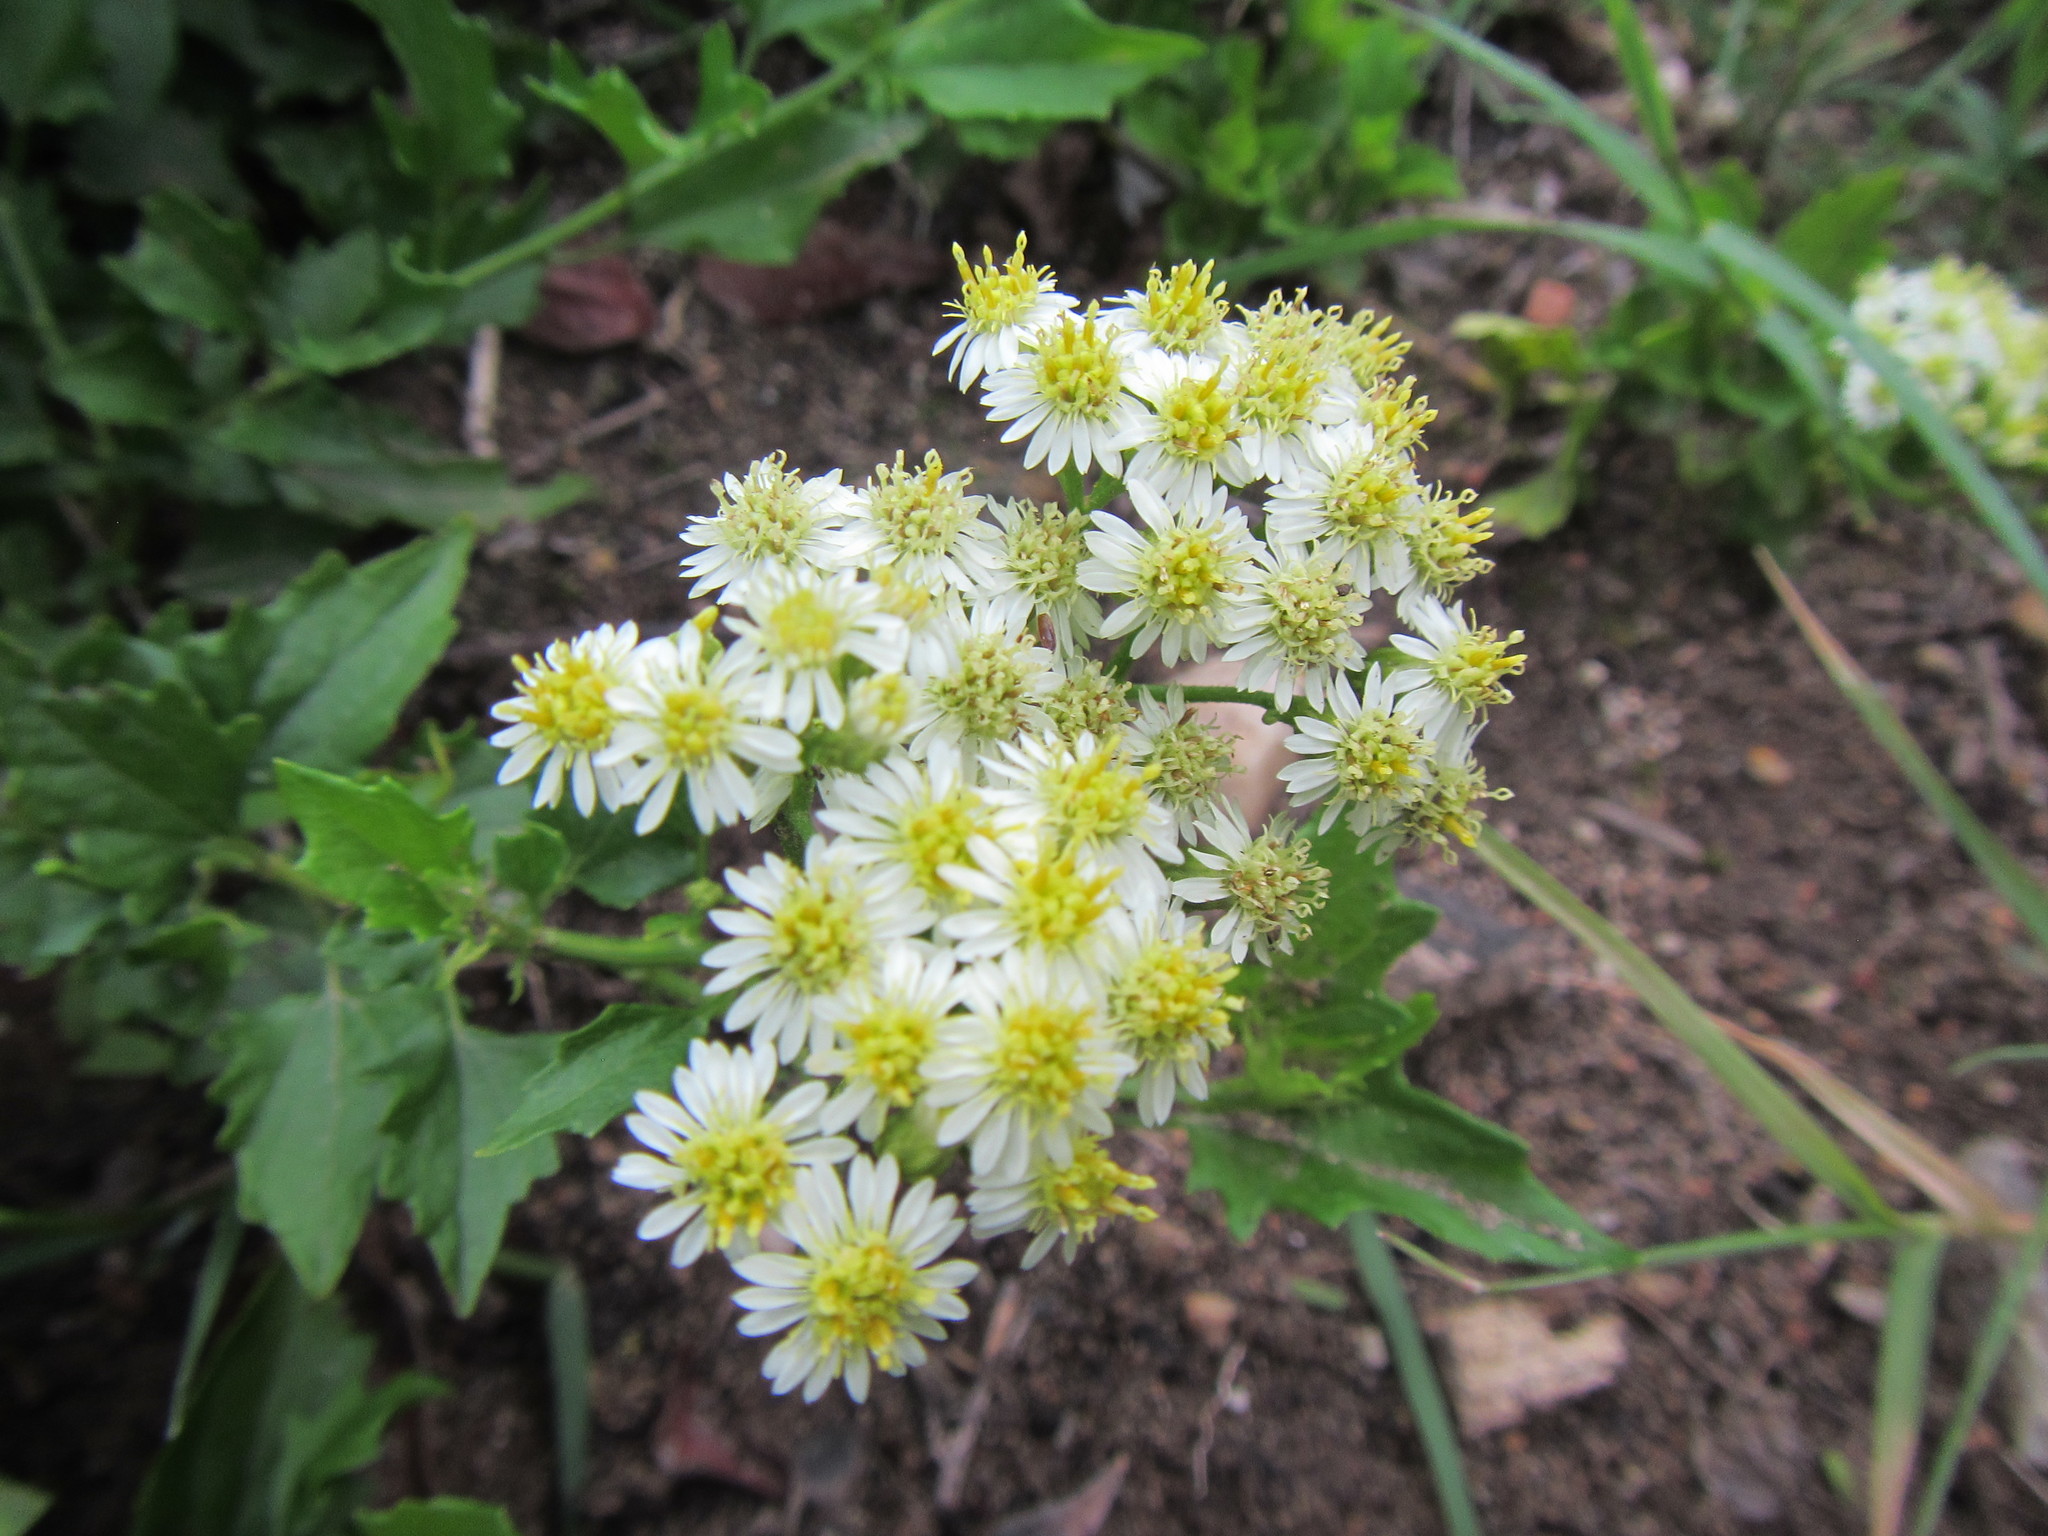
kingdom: Plantae
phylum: Tracheophyta
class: Magnoliopsida
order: Asterales
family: Asteraceae
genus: Microglossa
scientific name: Microglossa mespilifolia
